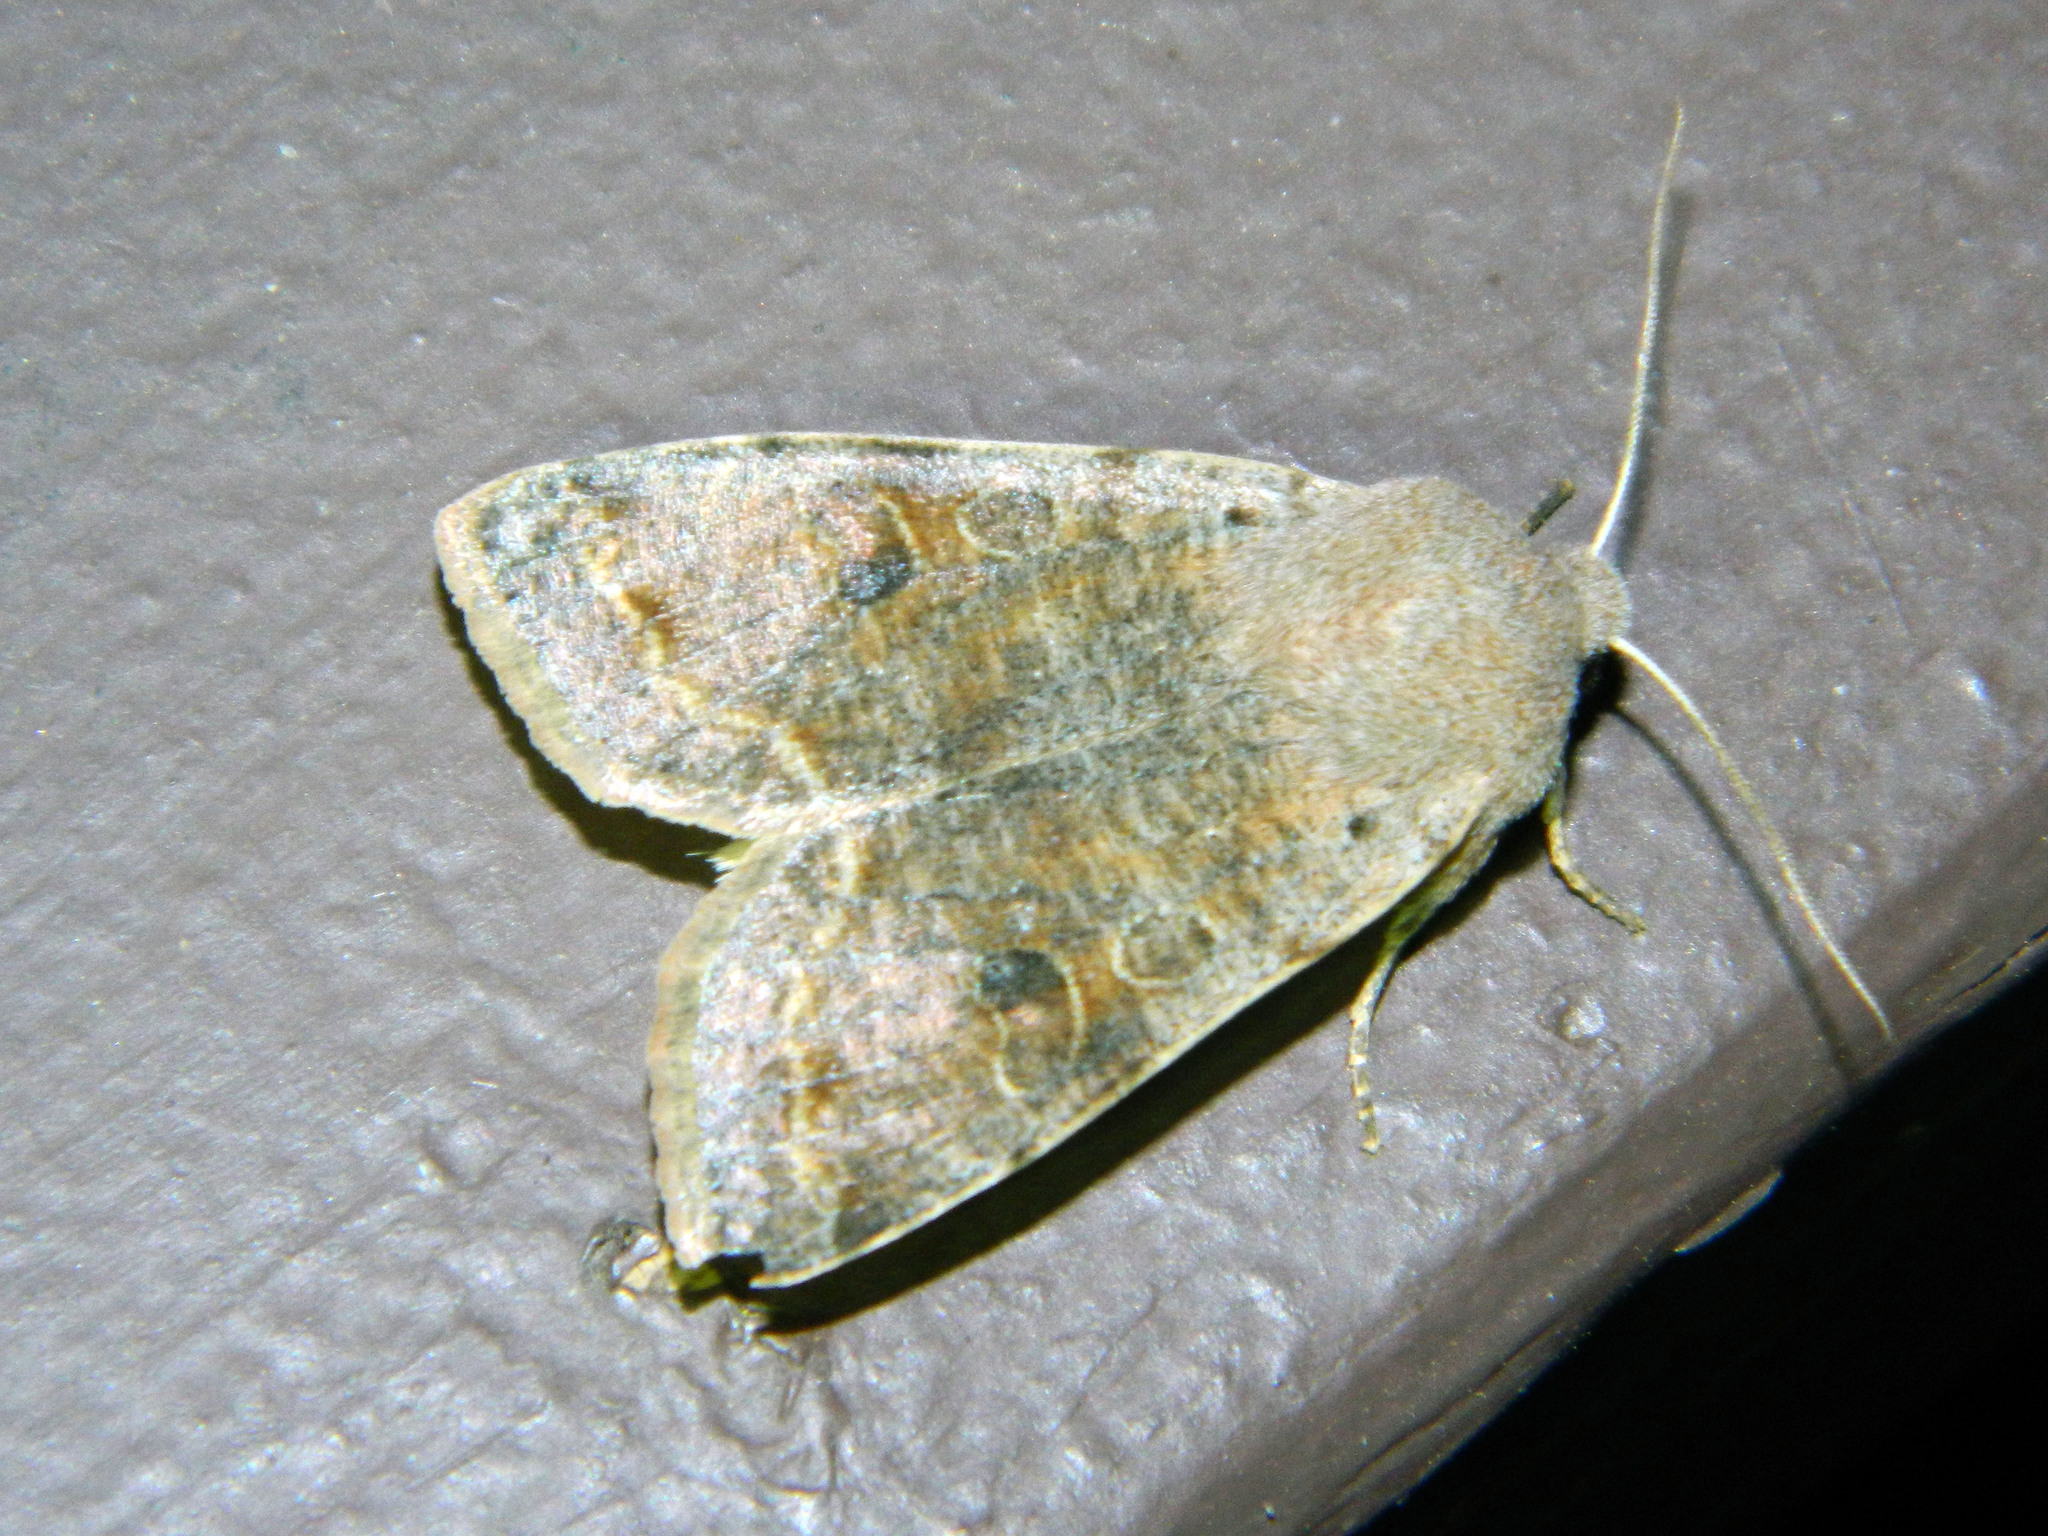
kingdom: Animalia
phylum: Arthropoda
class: Insecta
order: Lepidoptera
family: Noctuidae
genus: Orthosia
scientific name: Orthosia hibisci
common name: Green fruitworm
